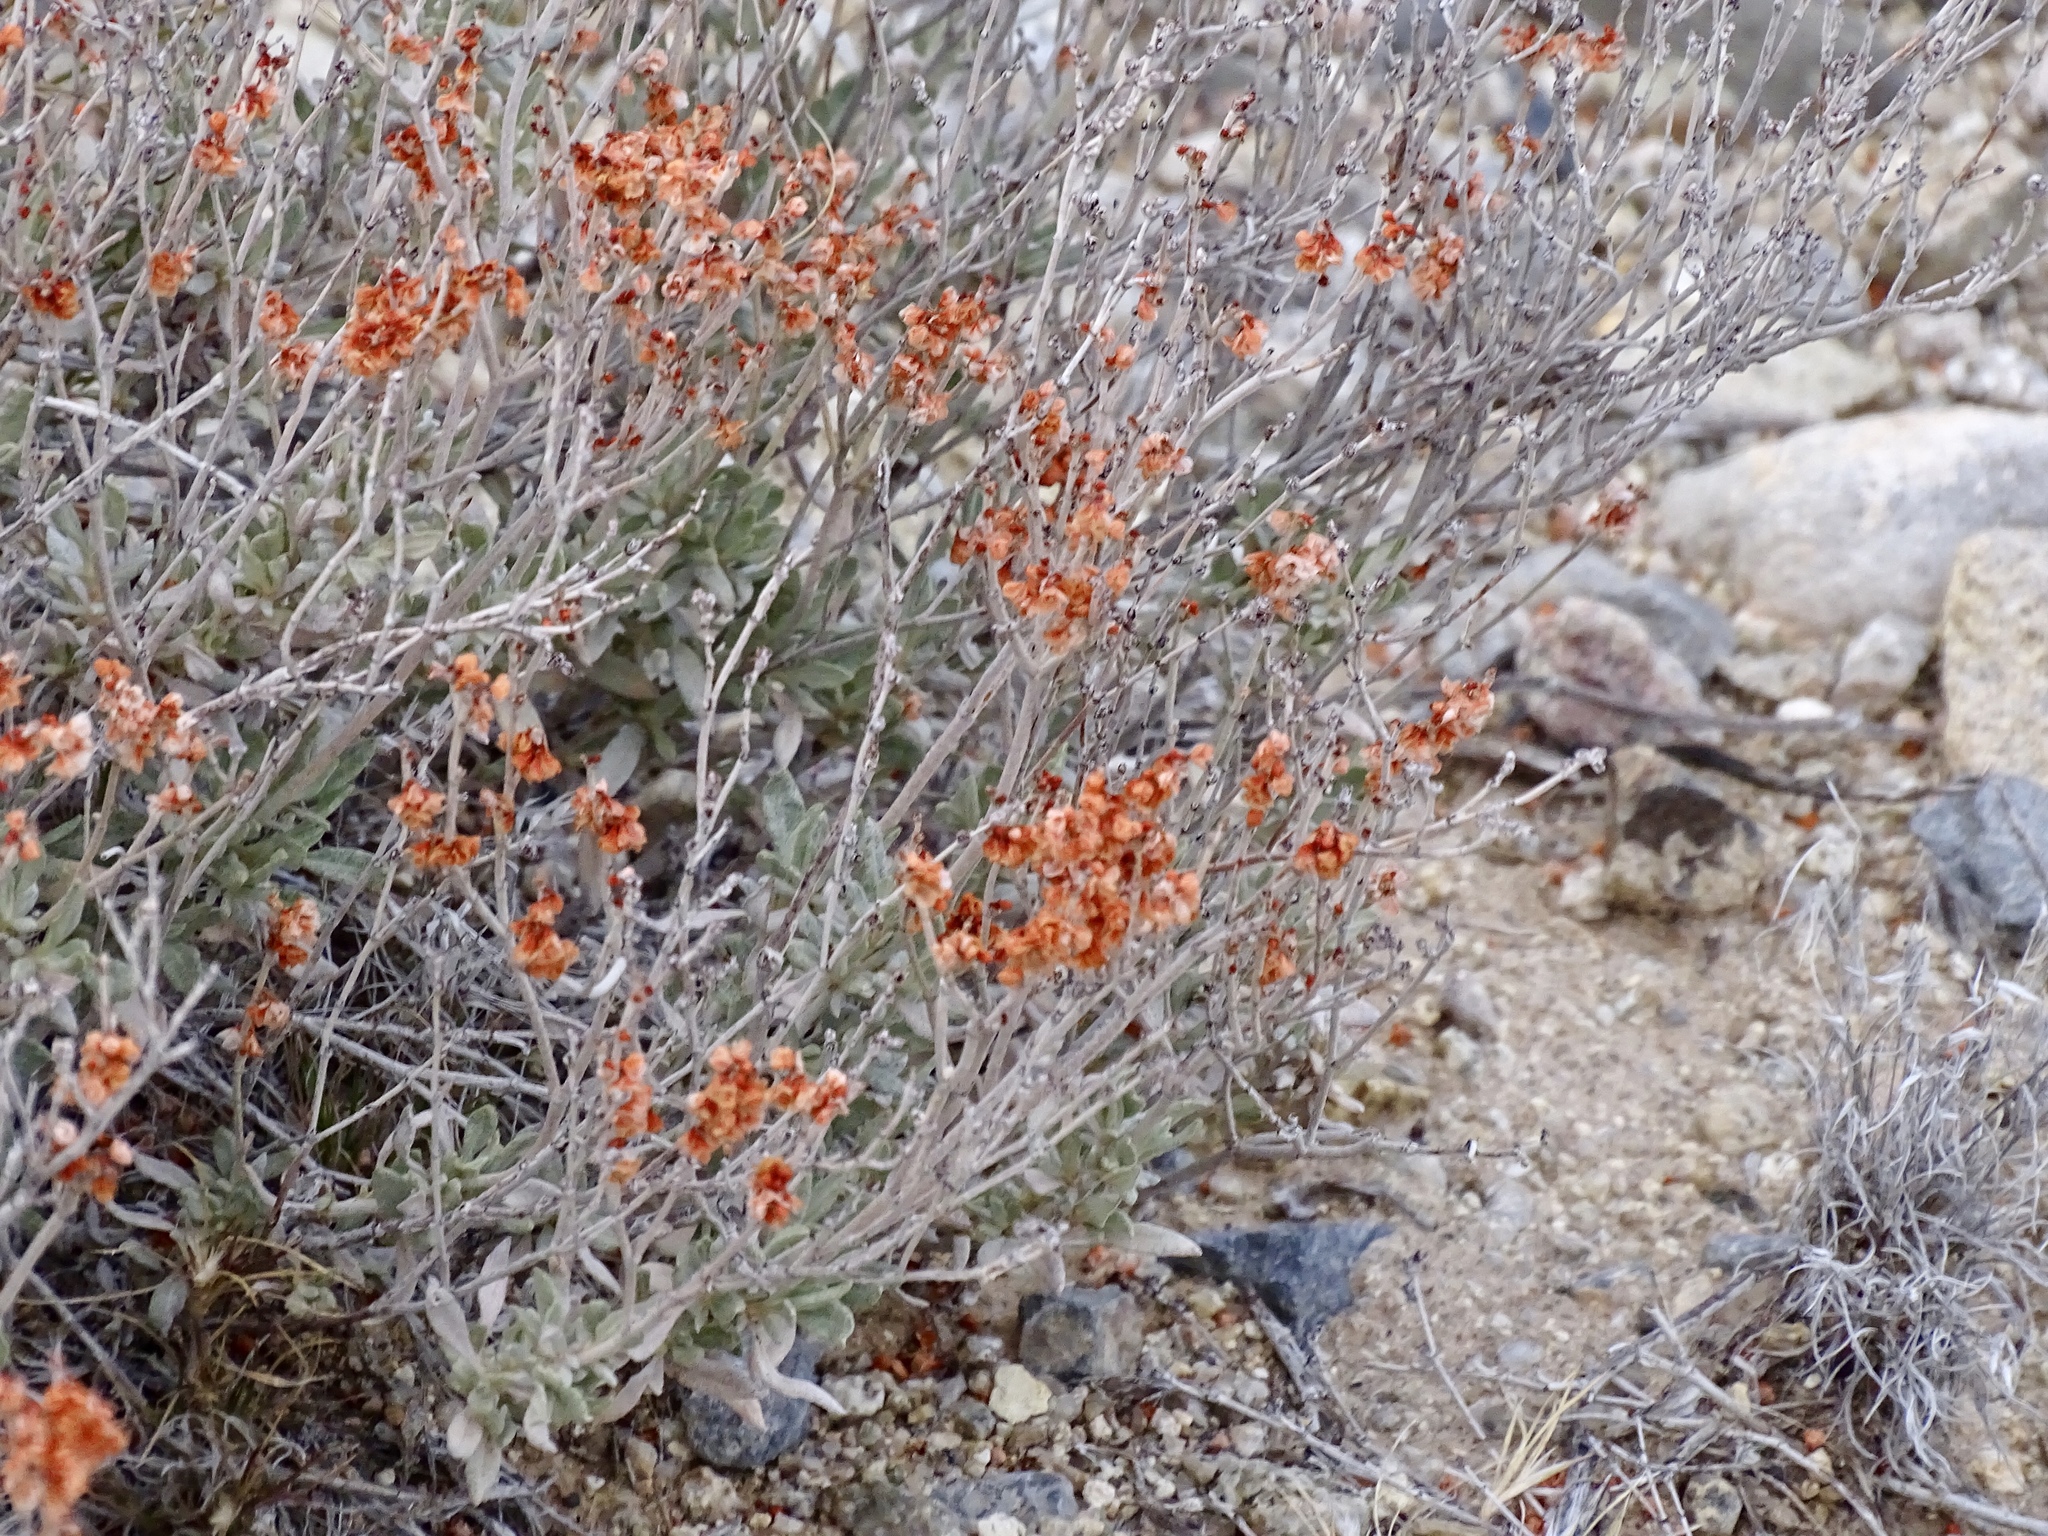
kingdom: Plantae
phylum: Tracheophyta
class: Magnoliopsida
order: Caryophyllales
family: Polygonaceae
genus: Eriogonum
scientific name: Eriogonum wrightii
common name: Bastard-sage
